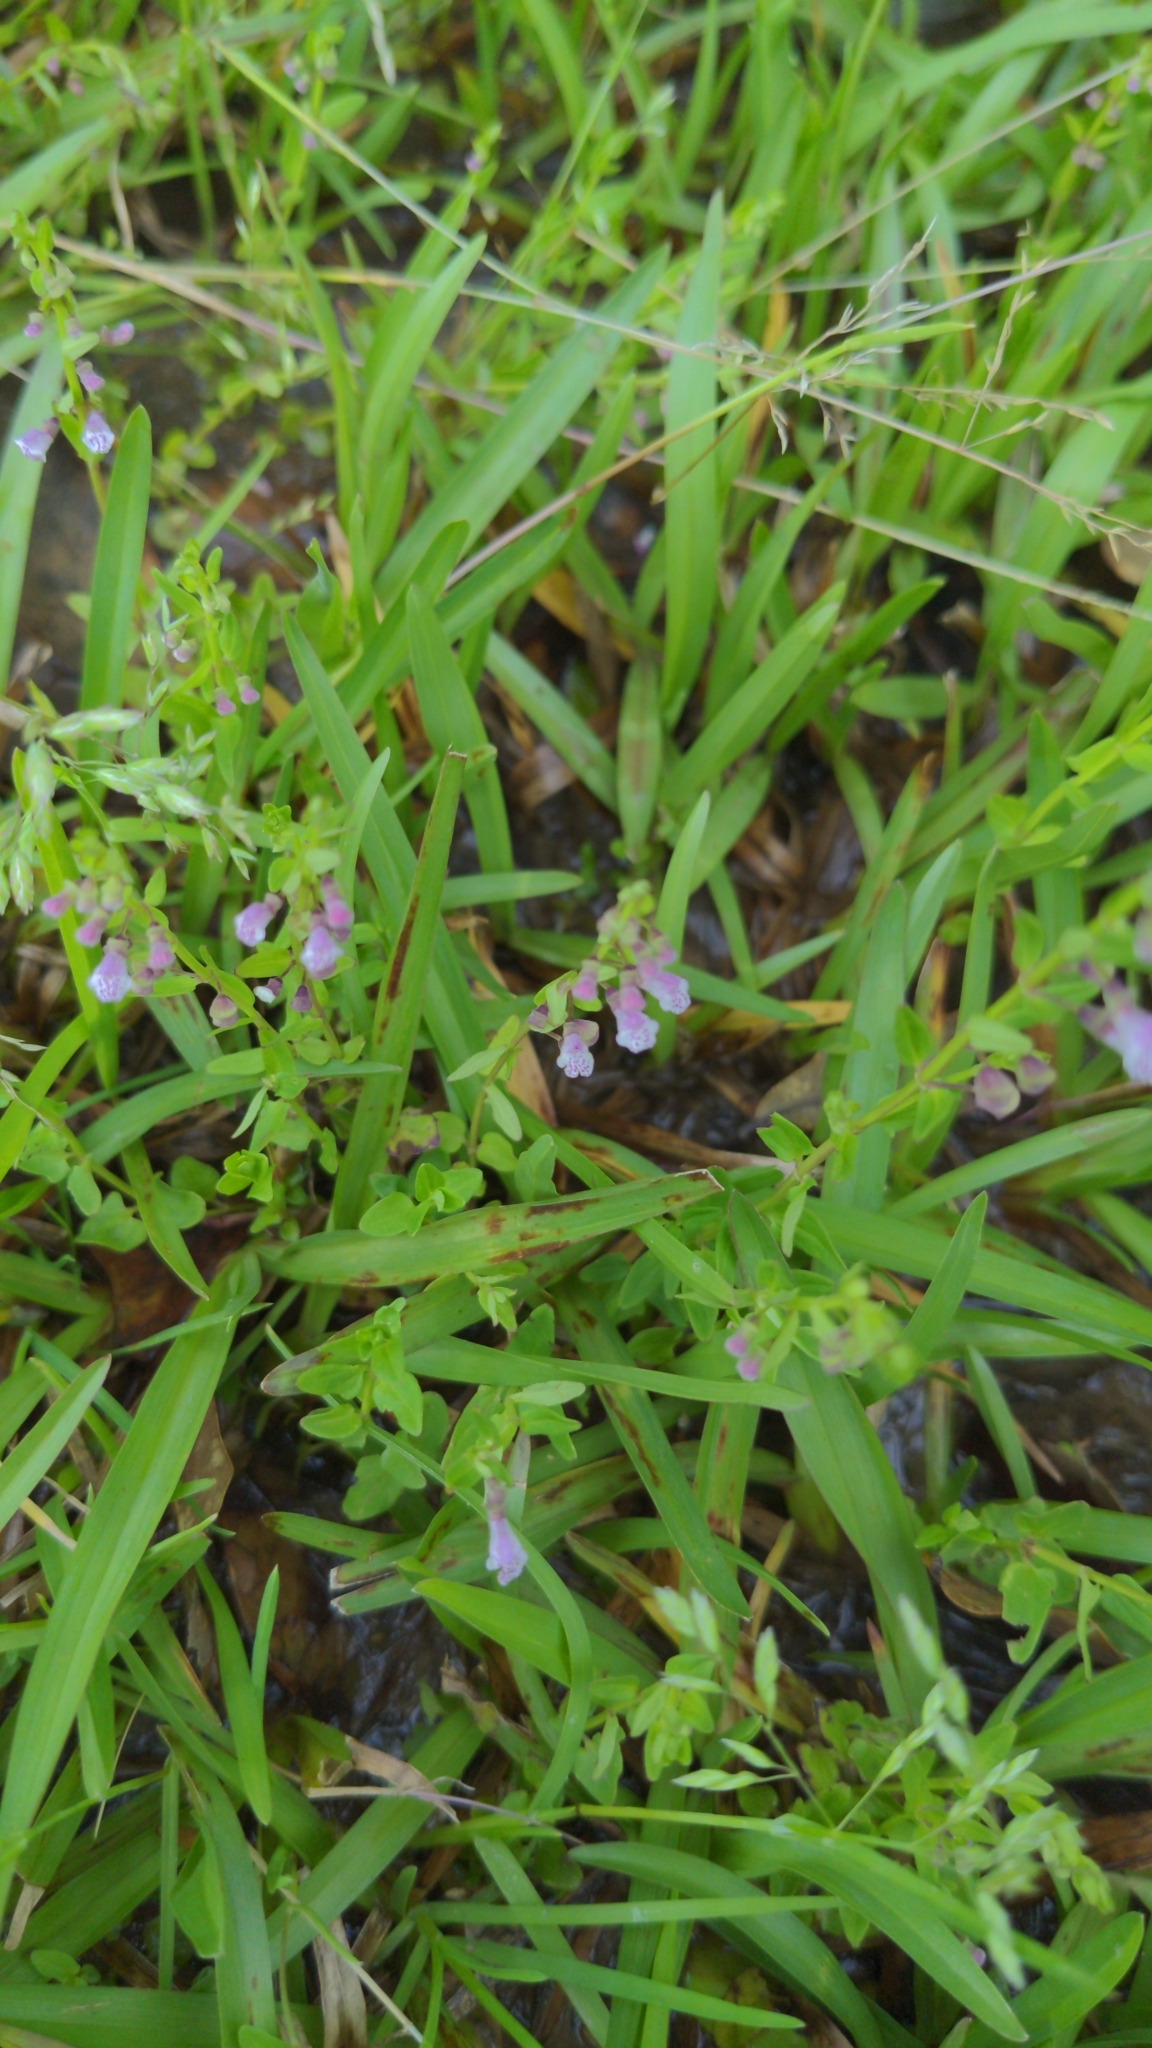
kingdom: Plantae
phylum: Tracheophyta
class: Magnoliopsida
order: Lamiales
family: Lamiaceae
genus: Scutellaria
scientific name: Scutellaria racemosa
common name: South american skullcap
